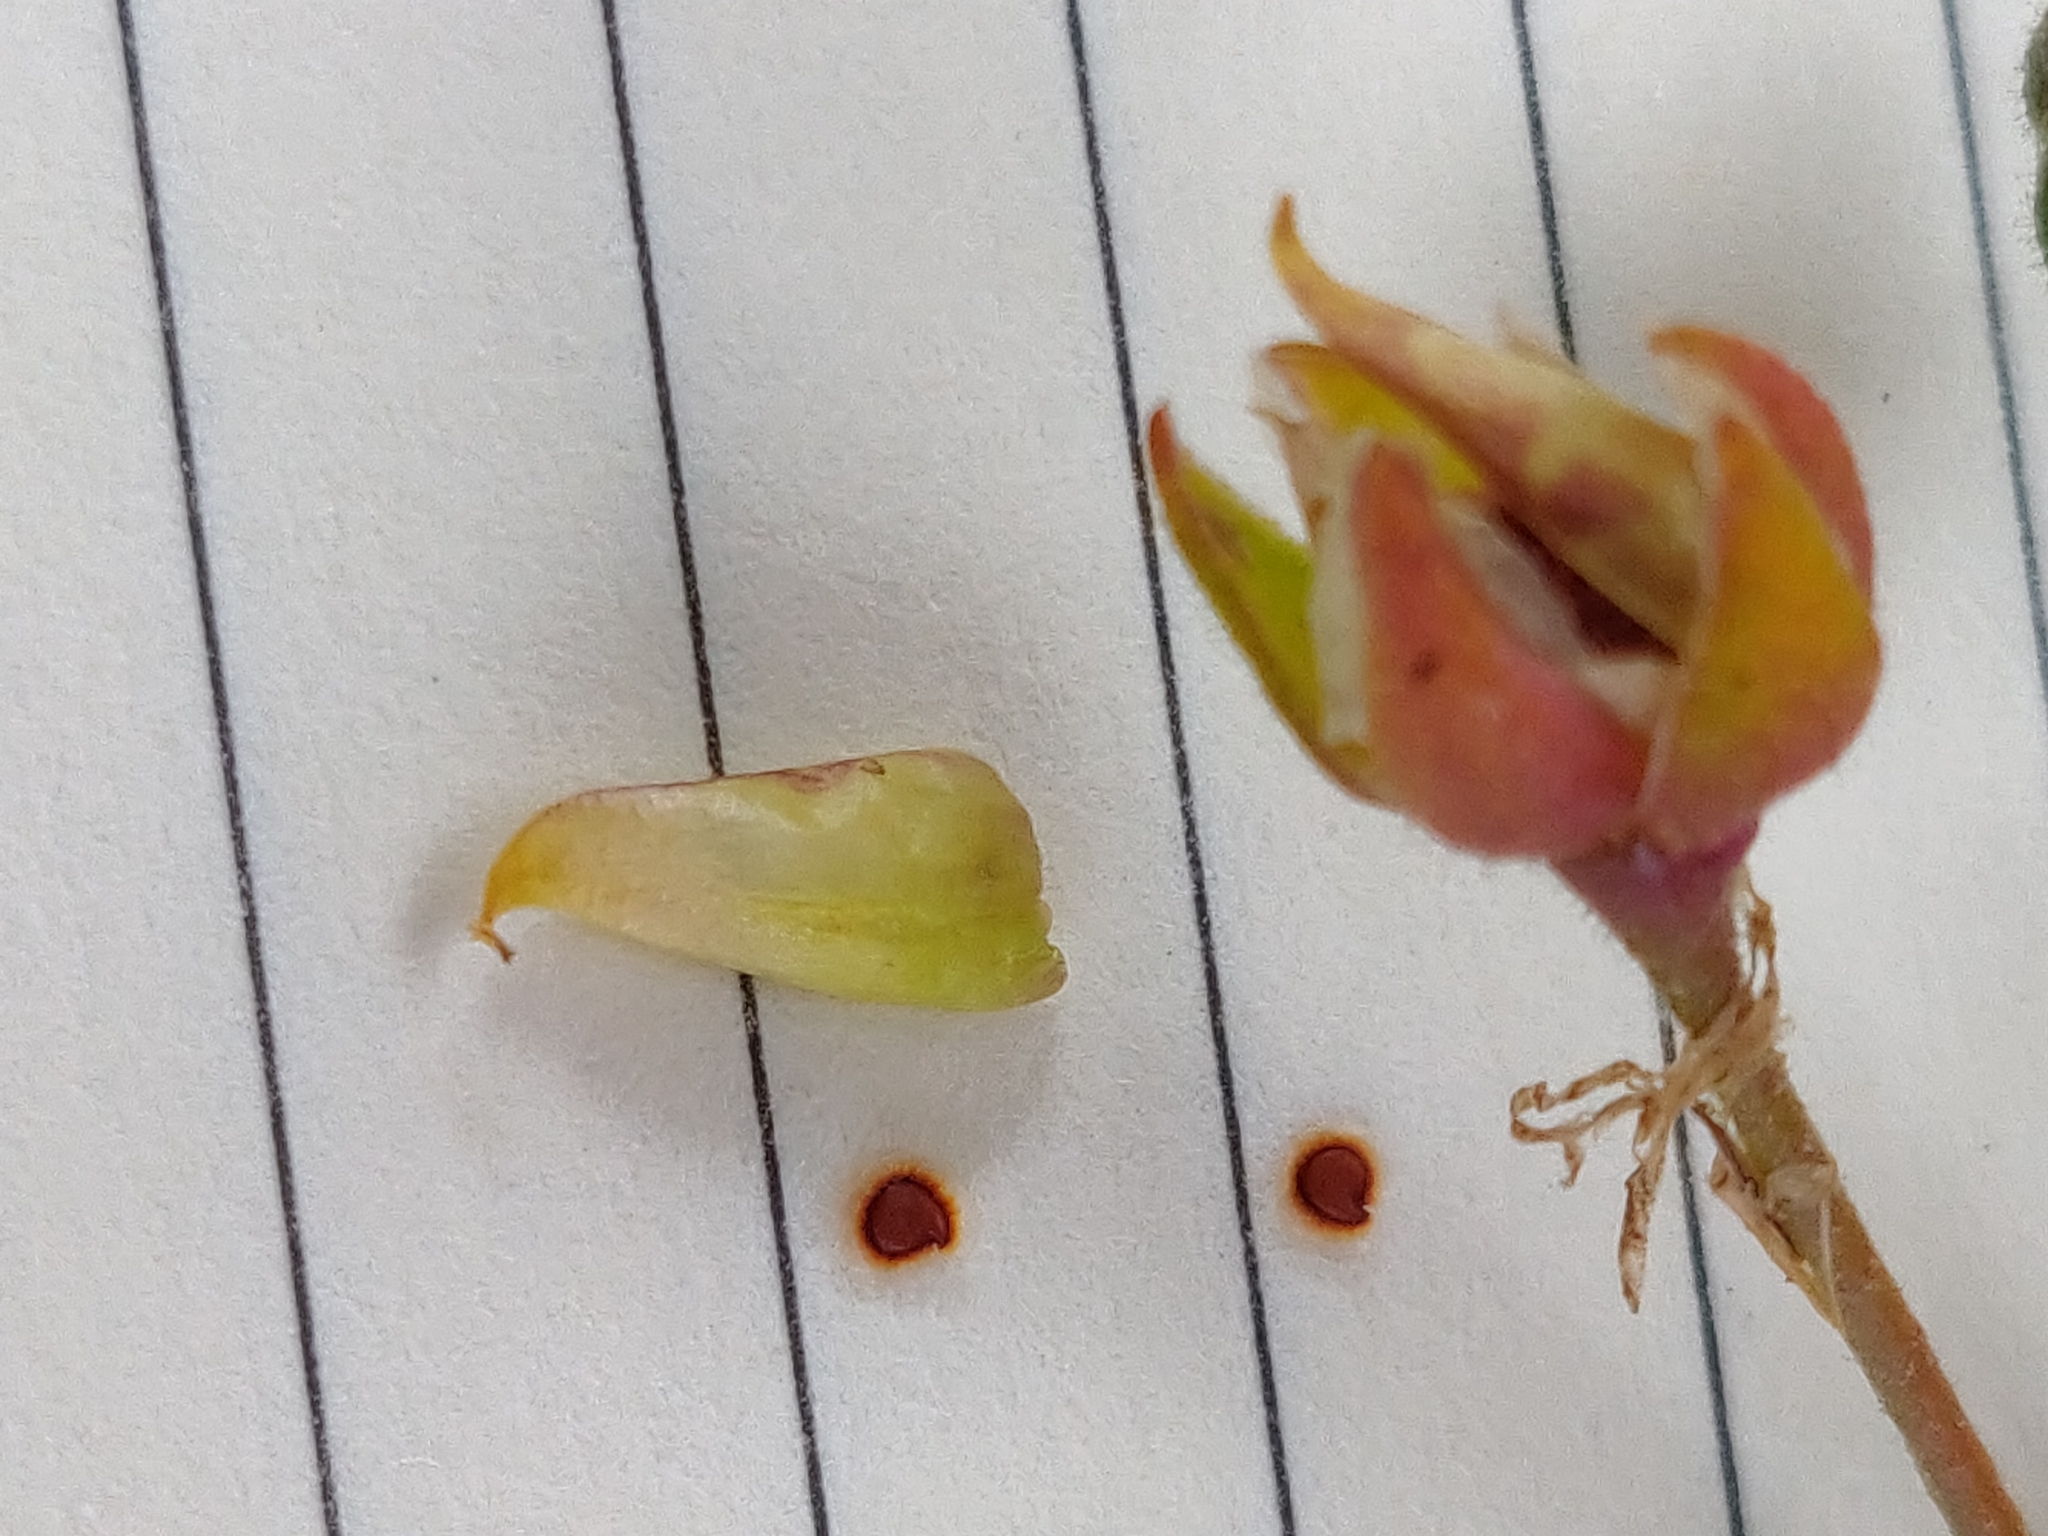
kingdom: Plantae
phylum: Tracheophyta
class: Magnoliopsida
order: Caryophyllales
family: Caryophyllaceae
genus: Spergularia
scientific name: Spergularia media
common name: Greater sea-spurrey
